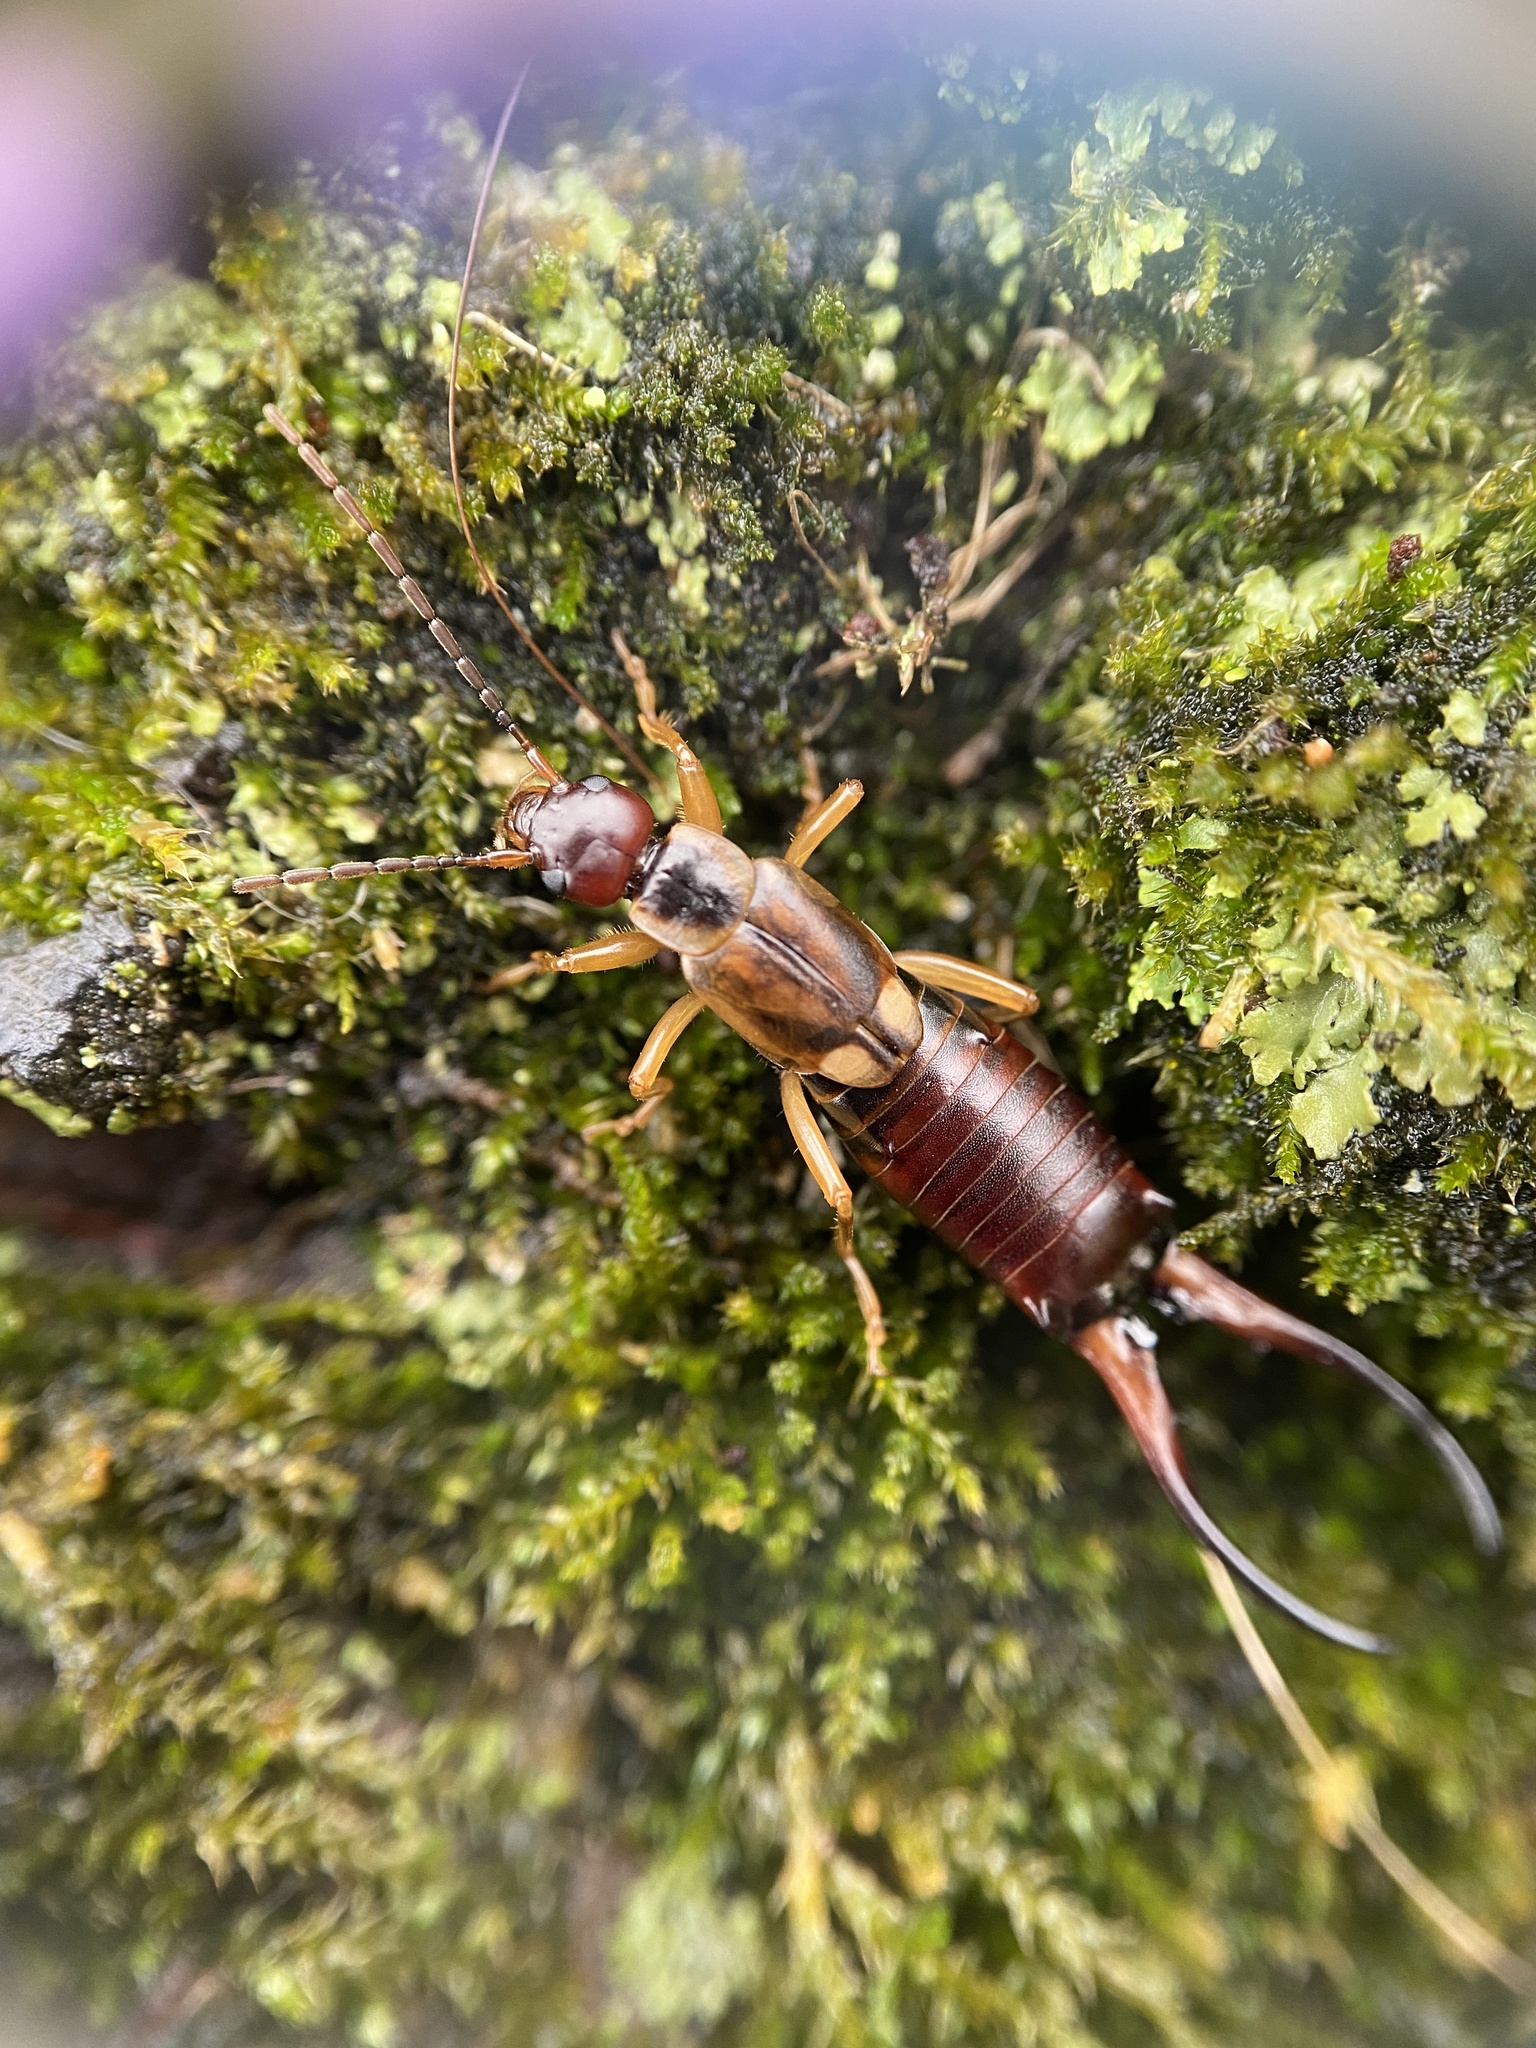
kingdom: Animalia
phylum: Arthropoda
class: Insecta
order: Dermaptera
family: Forficulidae
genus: Forficula
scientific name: Forficula
